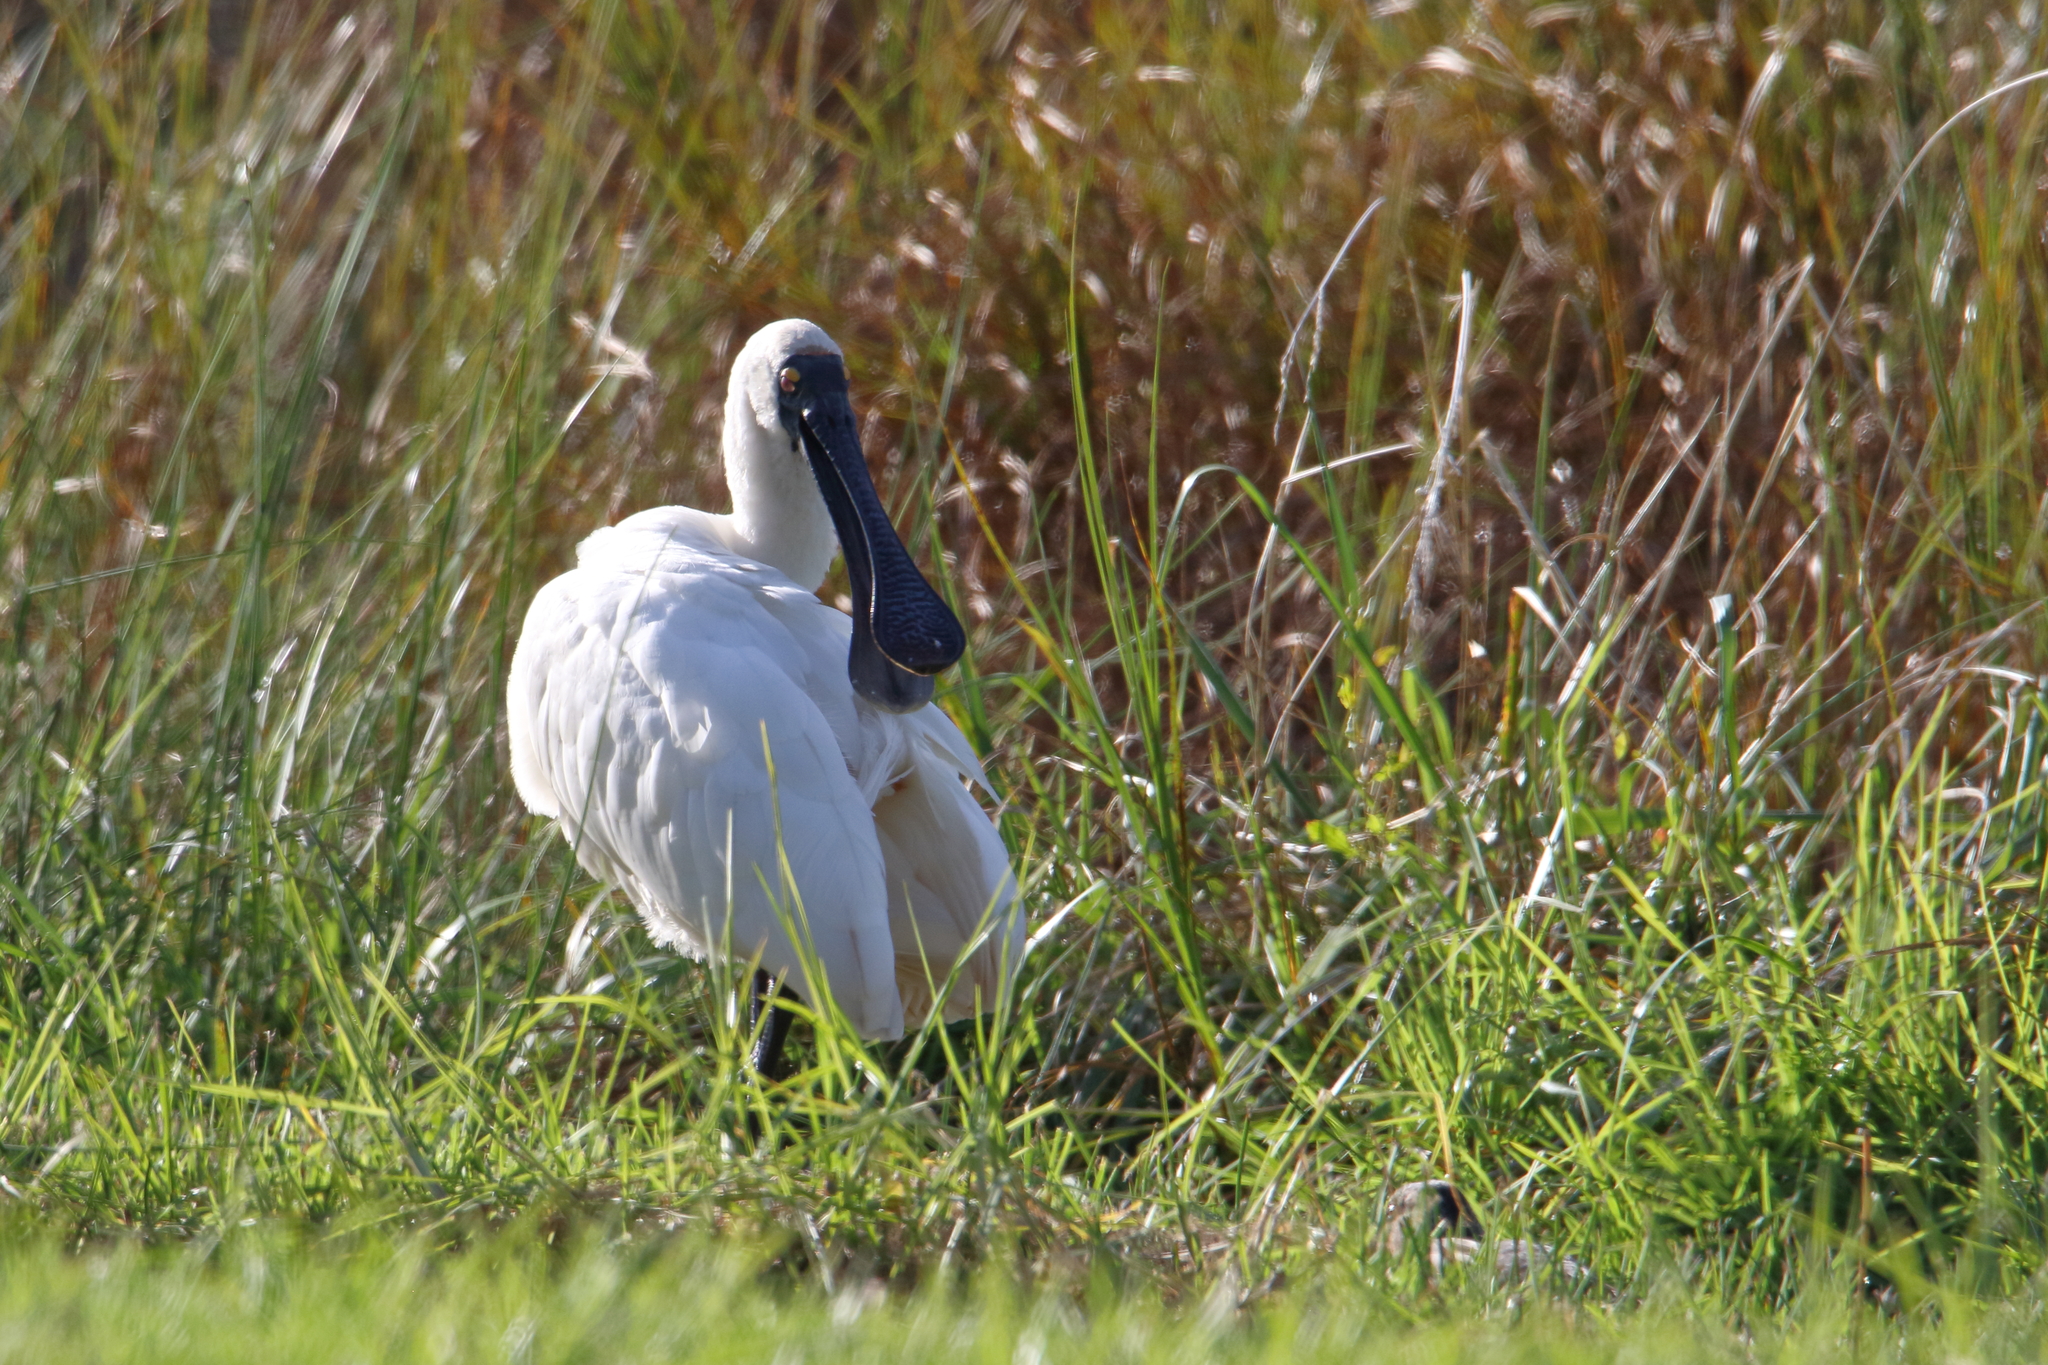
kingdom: Animalia
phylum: Chordata
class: Aves
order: Pelecaniformes
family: Threskiornithidae
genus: Platalea
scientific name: Platalea regia
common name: Royal spoonbill
